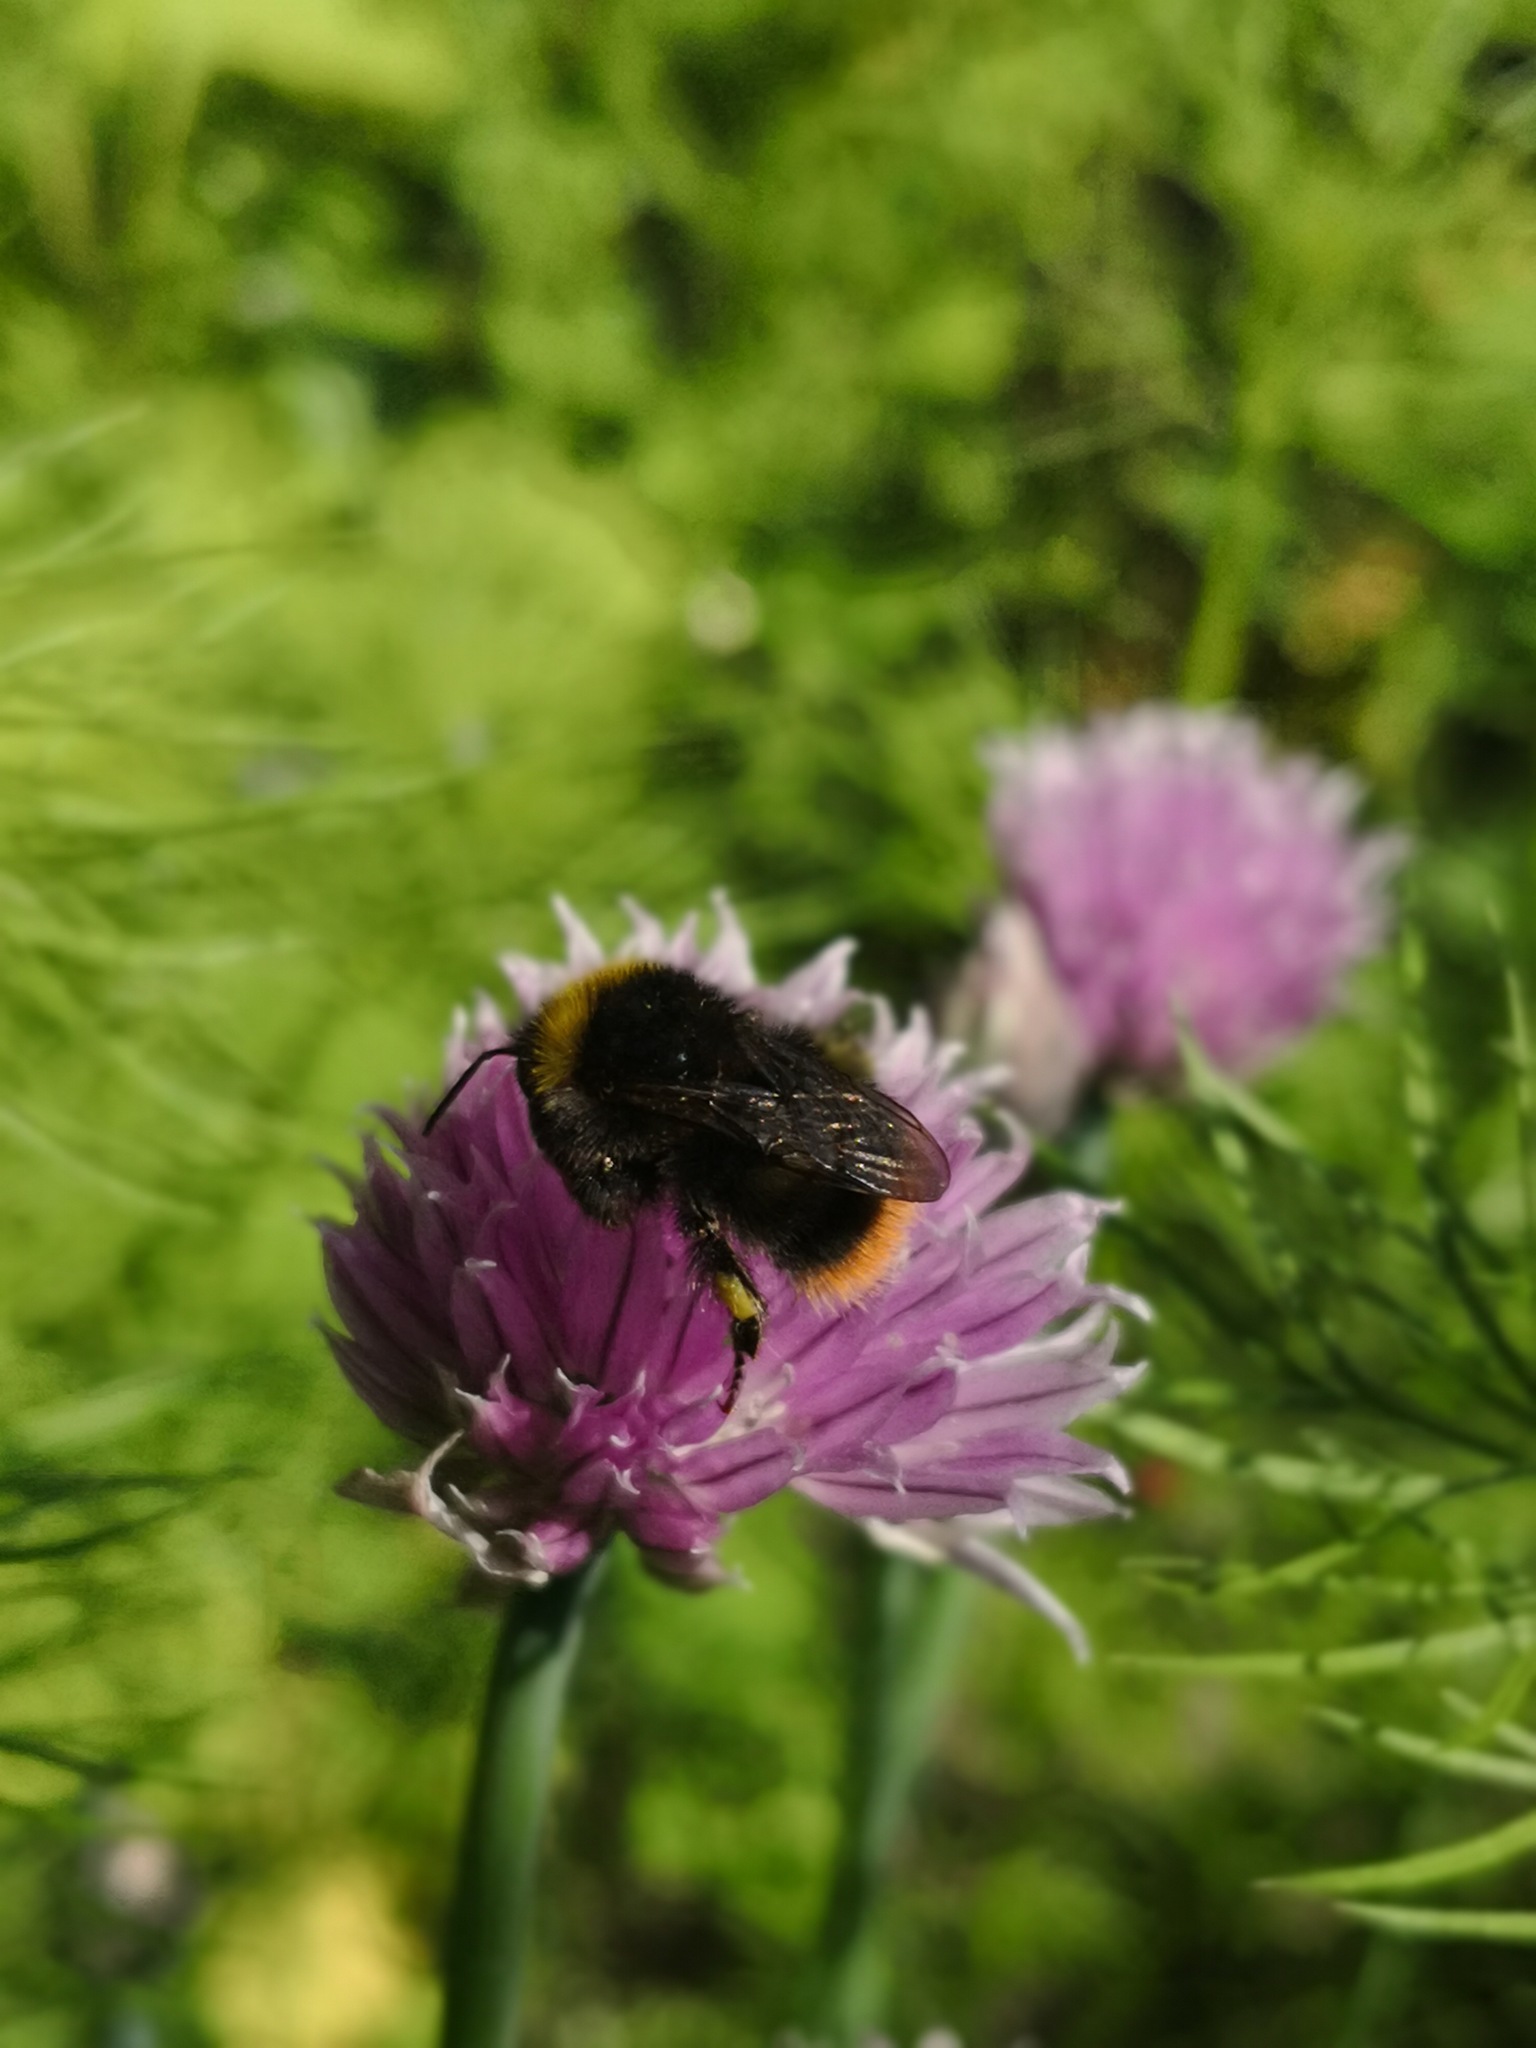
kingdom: Animalia
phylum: Arthropoda
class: Insecta
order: Hymenoptera
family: Apidae
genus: Bombus
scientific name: Bombus pratorum
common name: Early humble-bee
